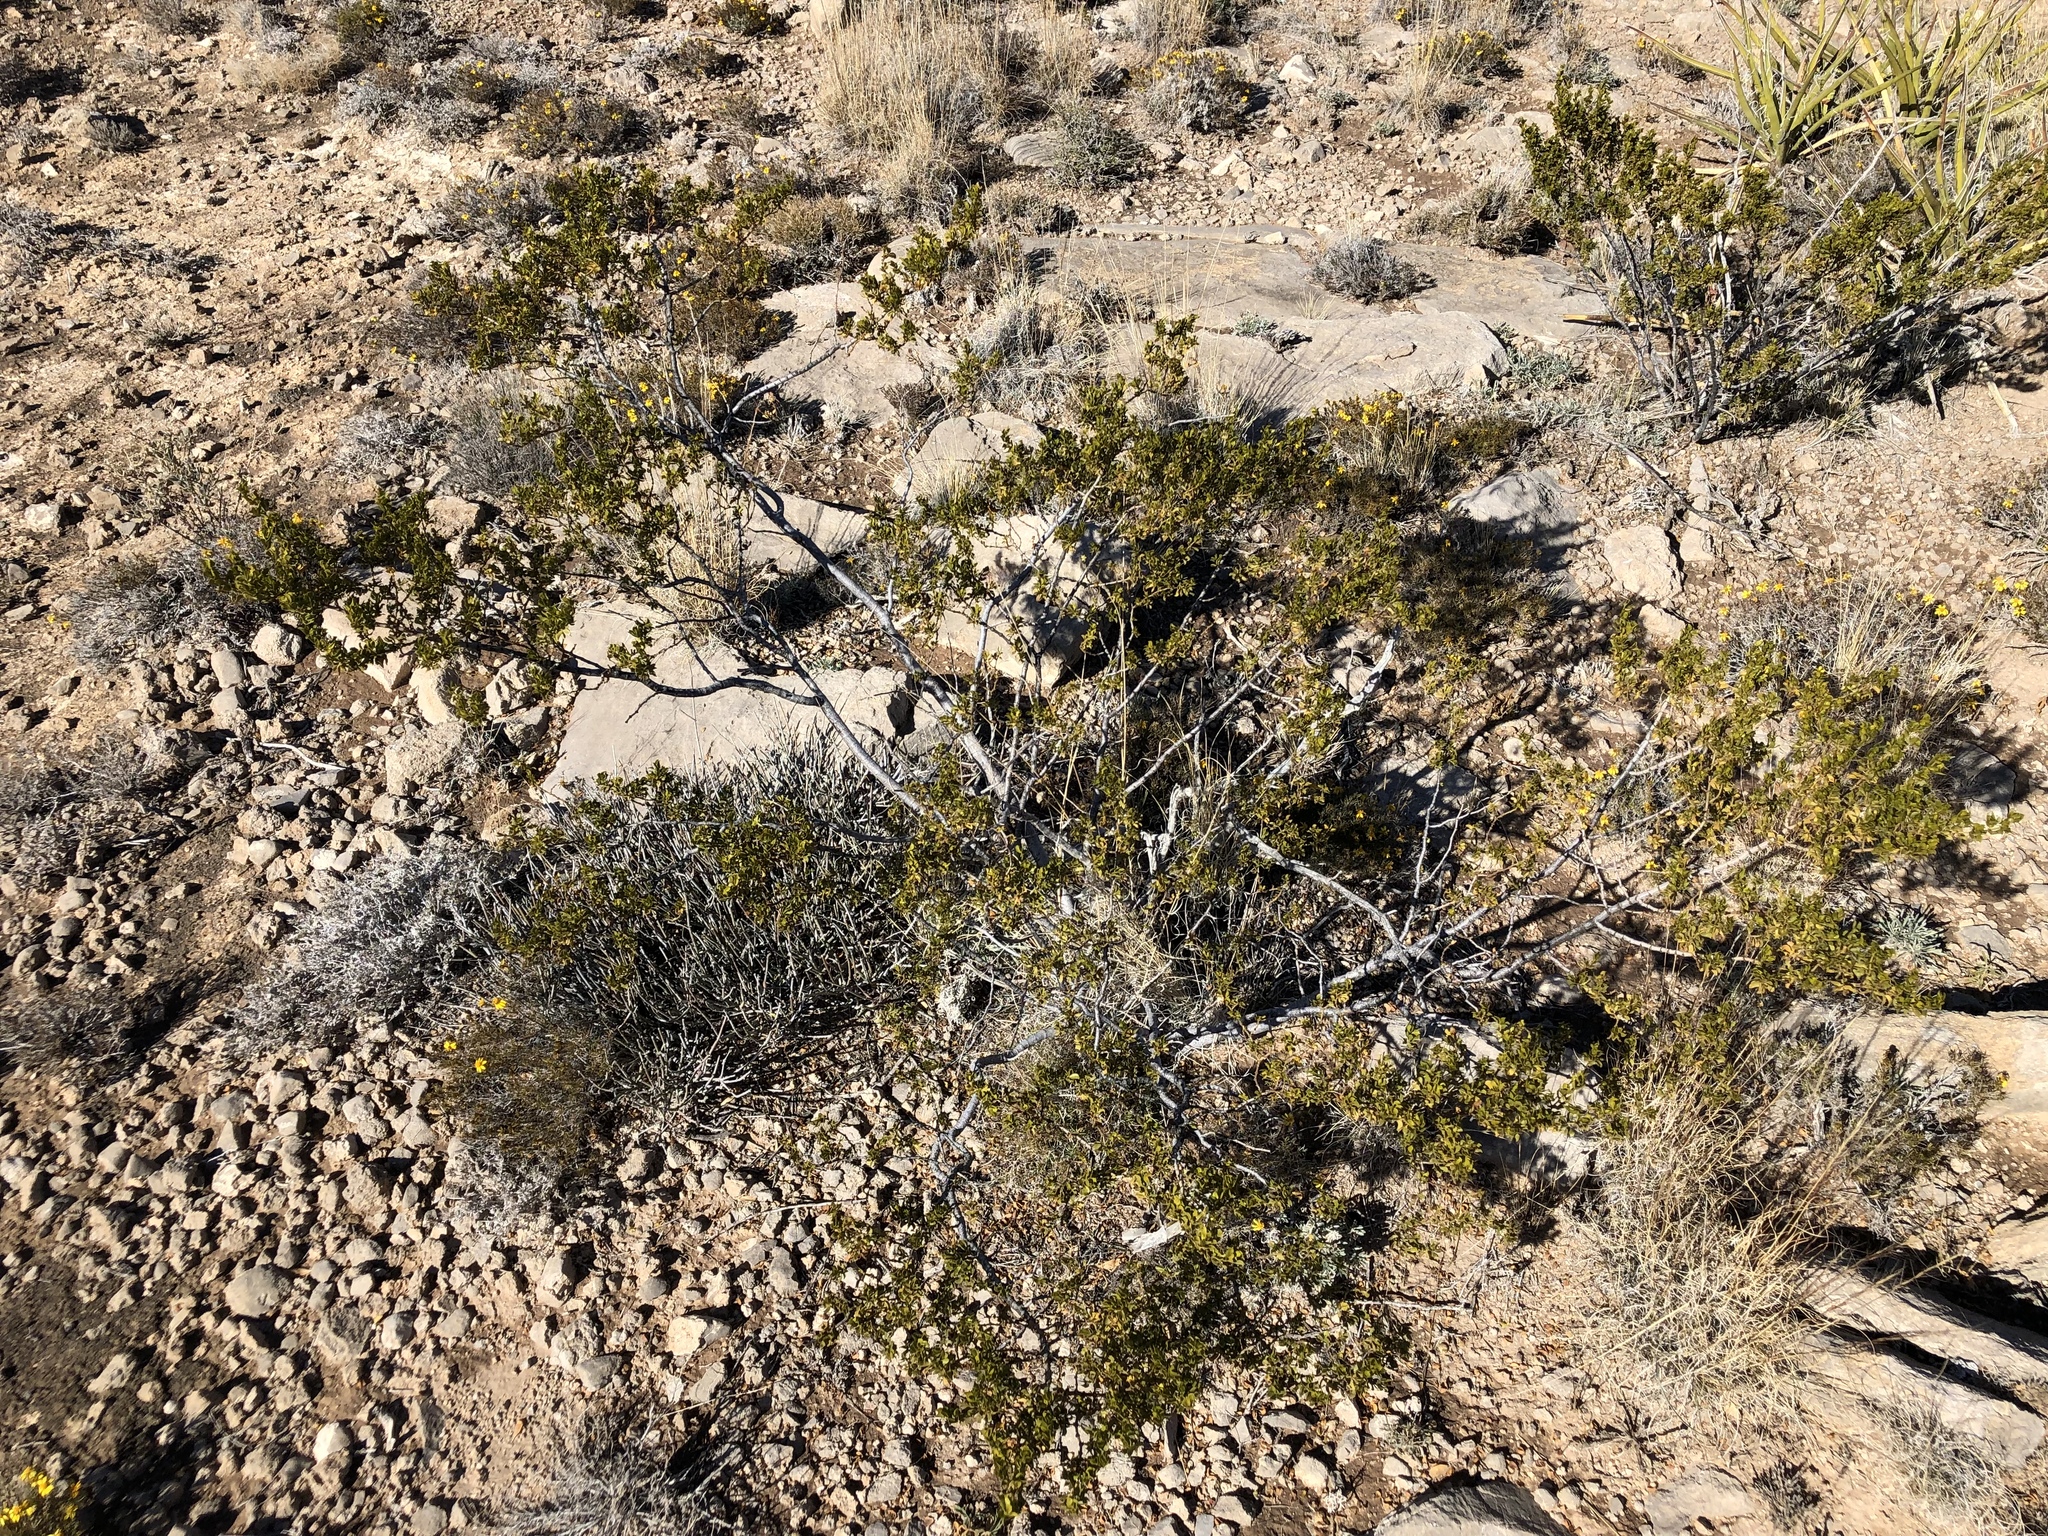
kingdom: Plantae
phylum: Tracheophyta
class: Magnoliopsida
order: Zygophyllales
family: Zygophyllaceae
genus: Larrea
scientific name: Larrea tridentata
